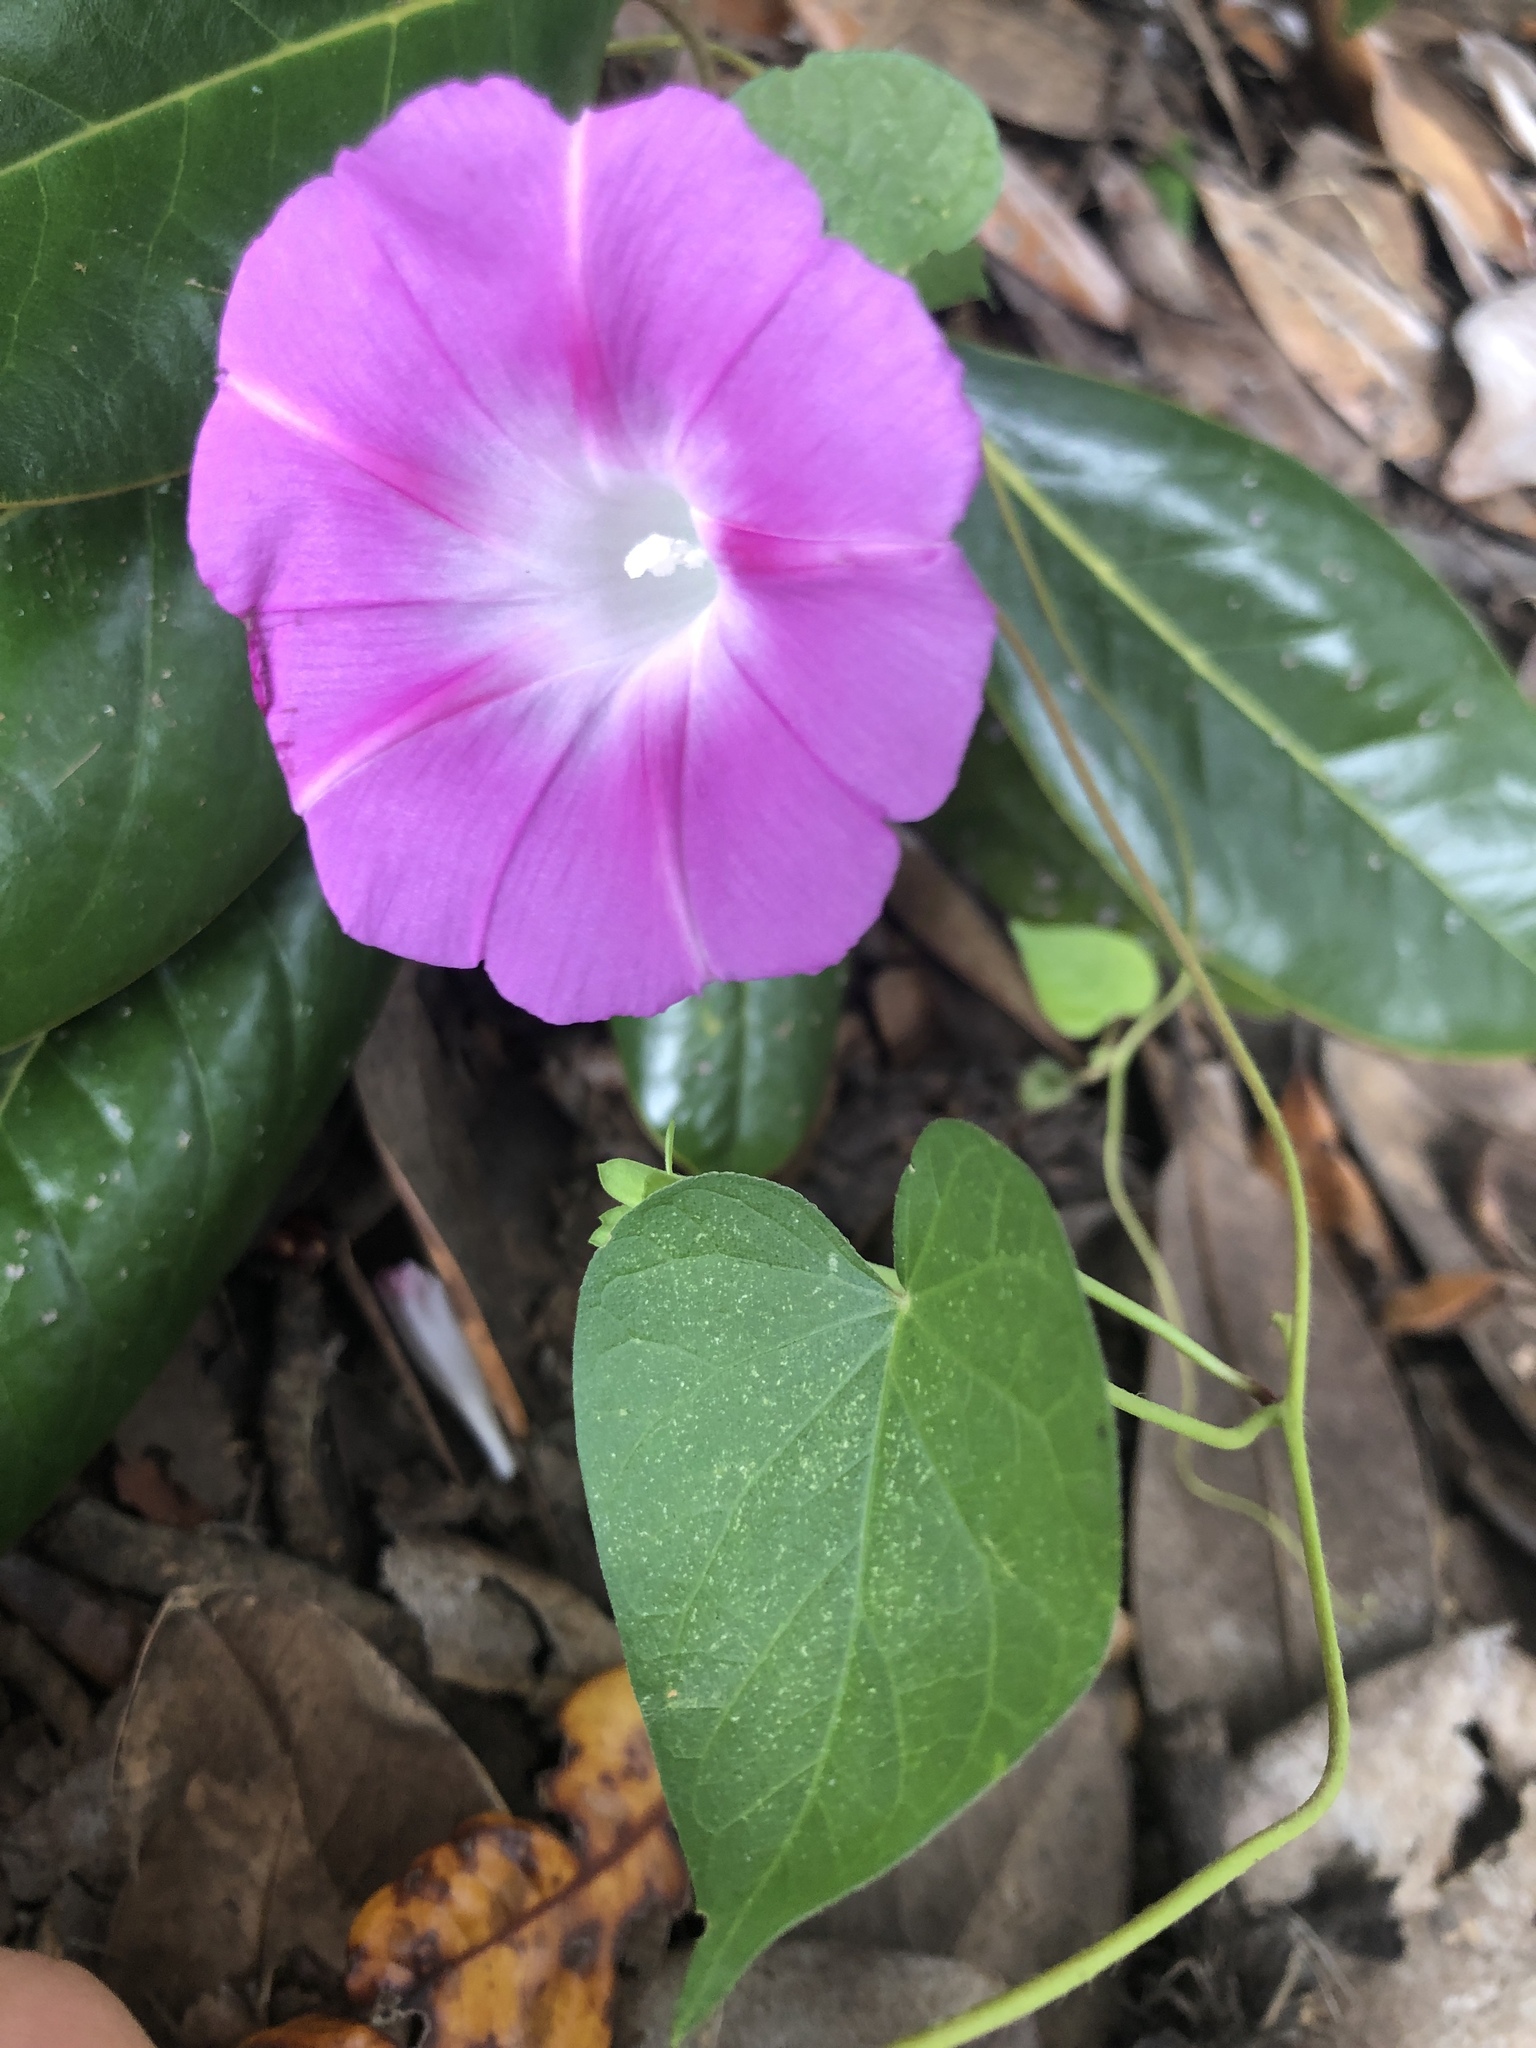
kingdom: Plantae
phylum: Tracheophyta
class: Magnoliopsida
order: Solanales
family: Convolvulaceae
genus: Ipomoea
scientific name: Ipomoea purpurea
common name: Common morning-glory
